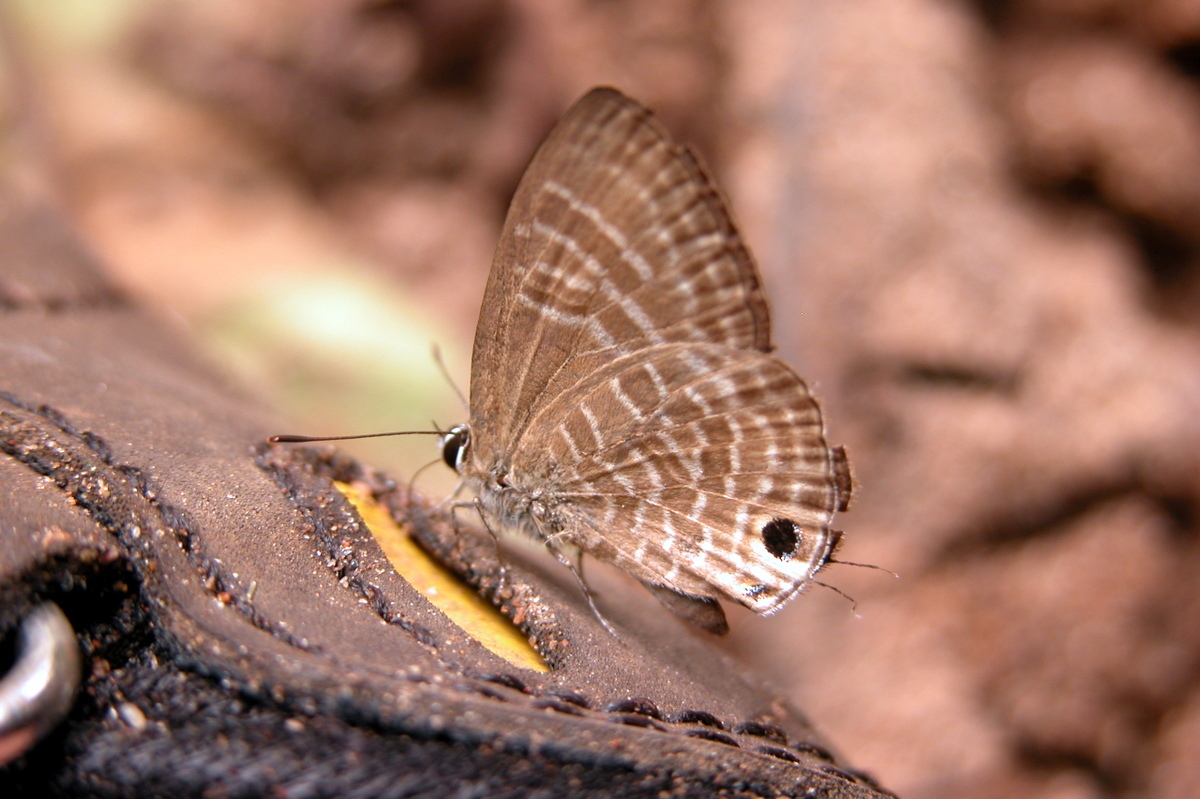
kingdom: Animalia
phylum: Arthropoda
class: Insecta
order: Lepidoptera
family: Lycaenidae
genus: Nacaduba
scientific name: Nacaduba pactolus
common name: Large fourline blue
